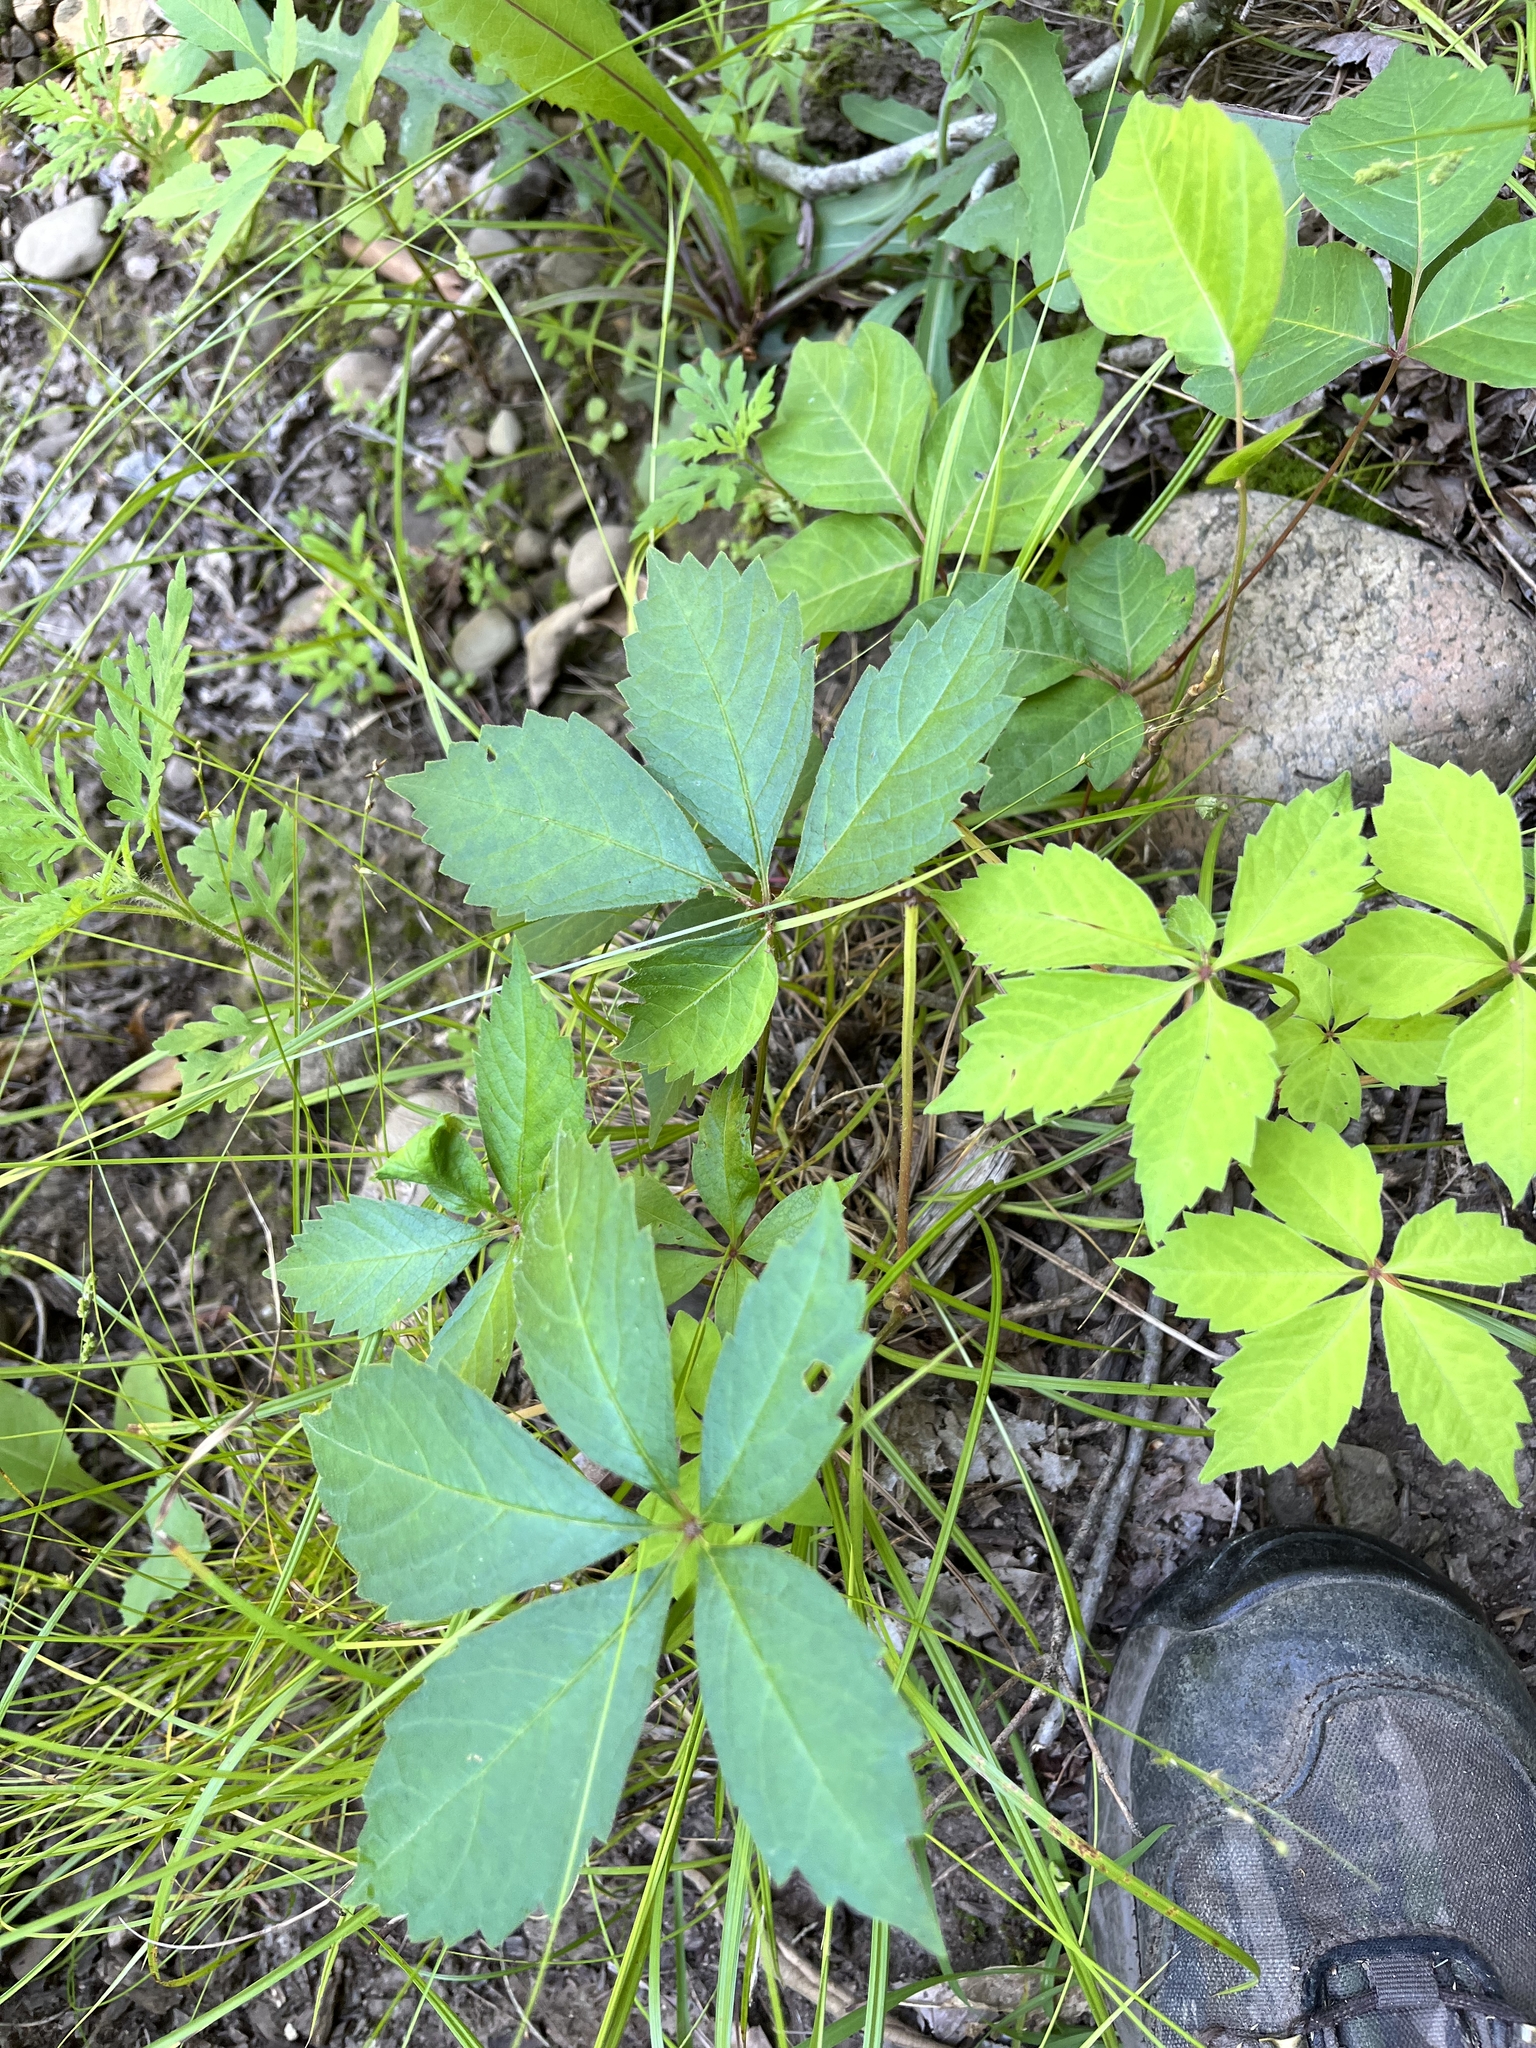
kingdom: Plantae
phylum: Tracheophyta
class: Magnoliopsida
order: Vitales
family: Vitaceae
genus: Parthenocissus
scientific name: Parthenocissus quinquefolia
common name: Virginia-creeper
